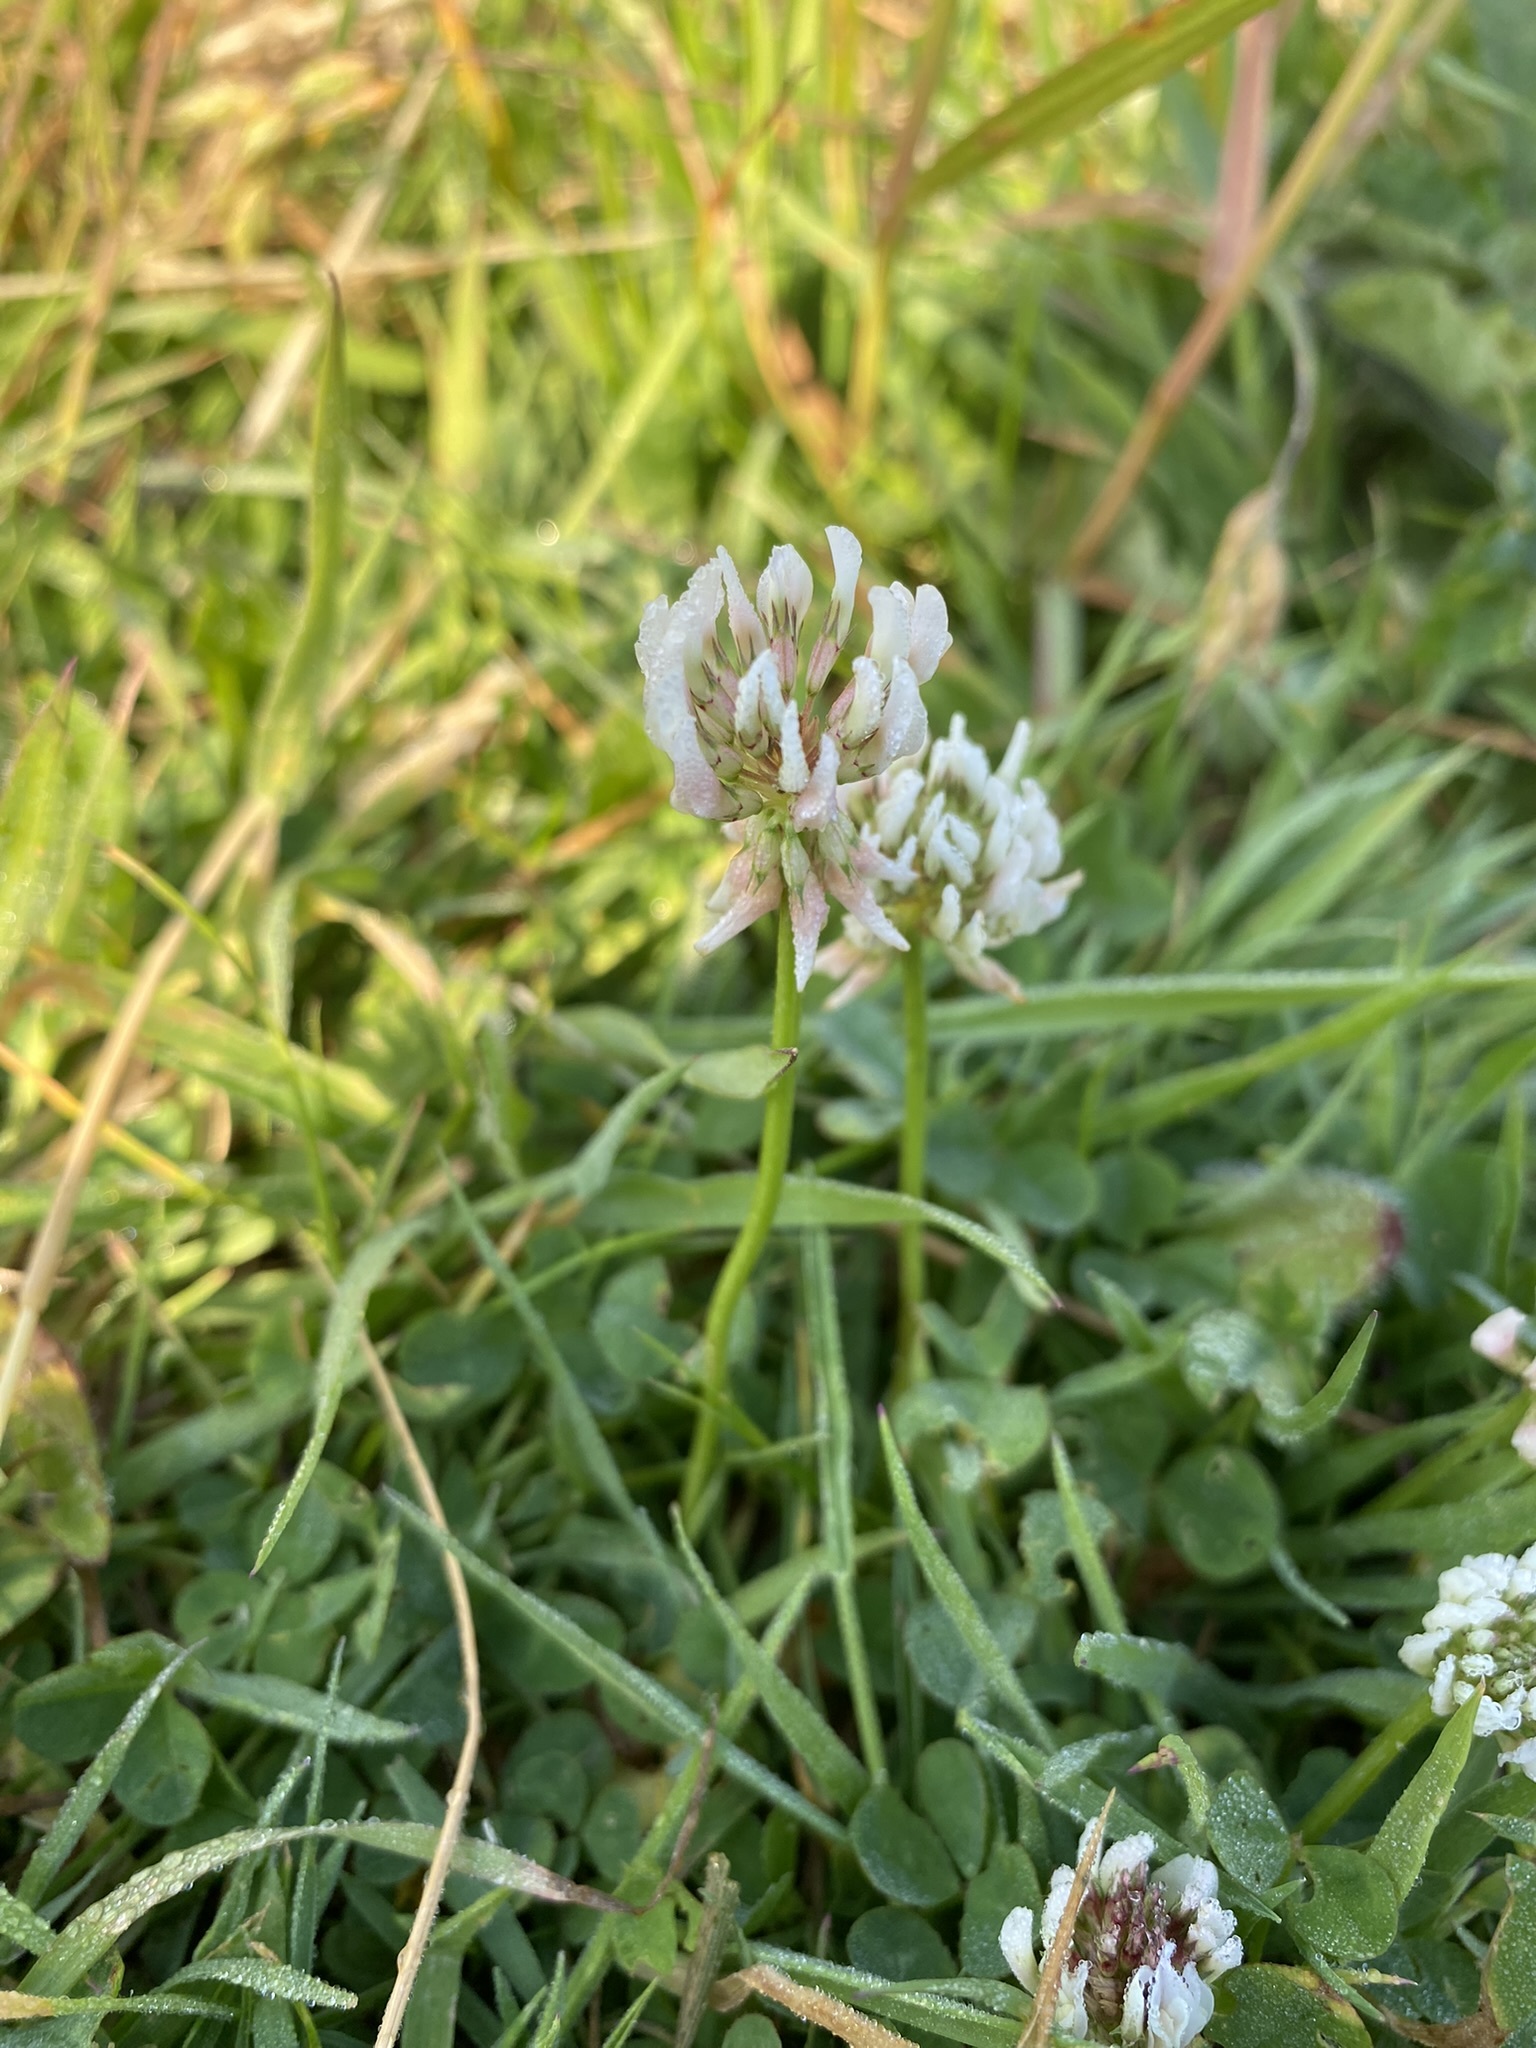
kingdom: Plantae
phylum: Tracheophyta
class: Magnoliopsida
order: Fabales
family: Fabaceae
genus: Trifolium
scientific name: Trifolium repens
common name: White clover
